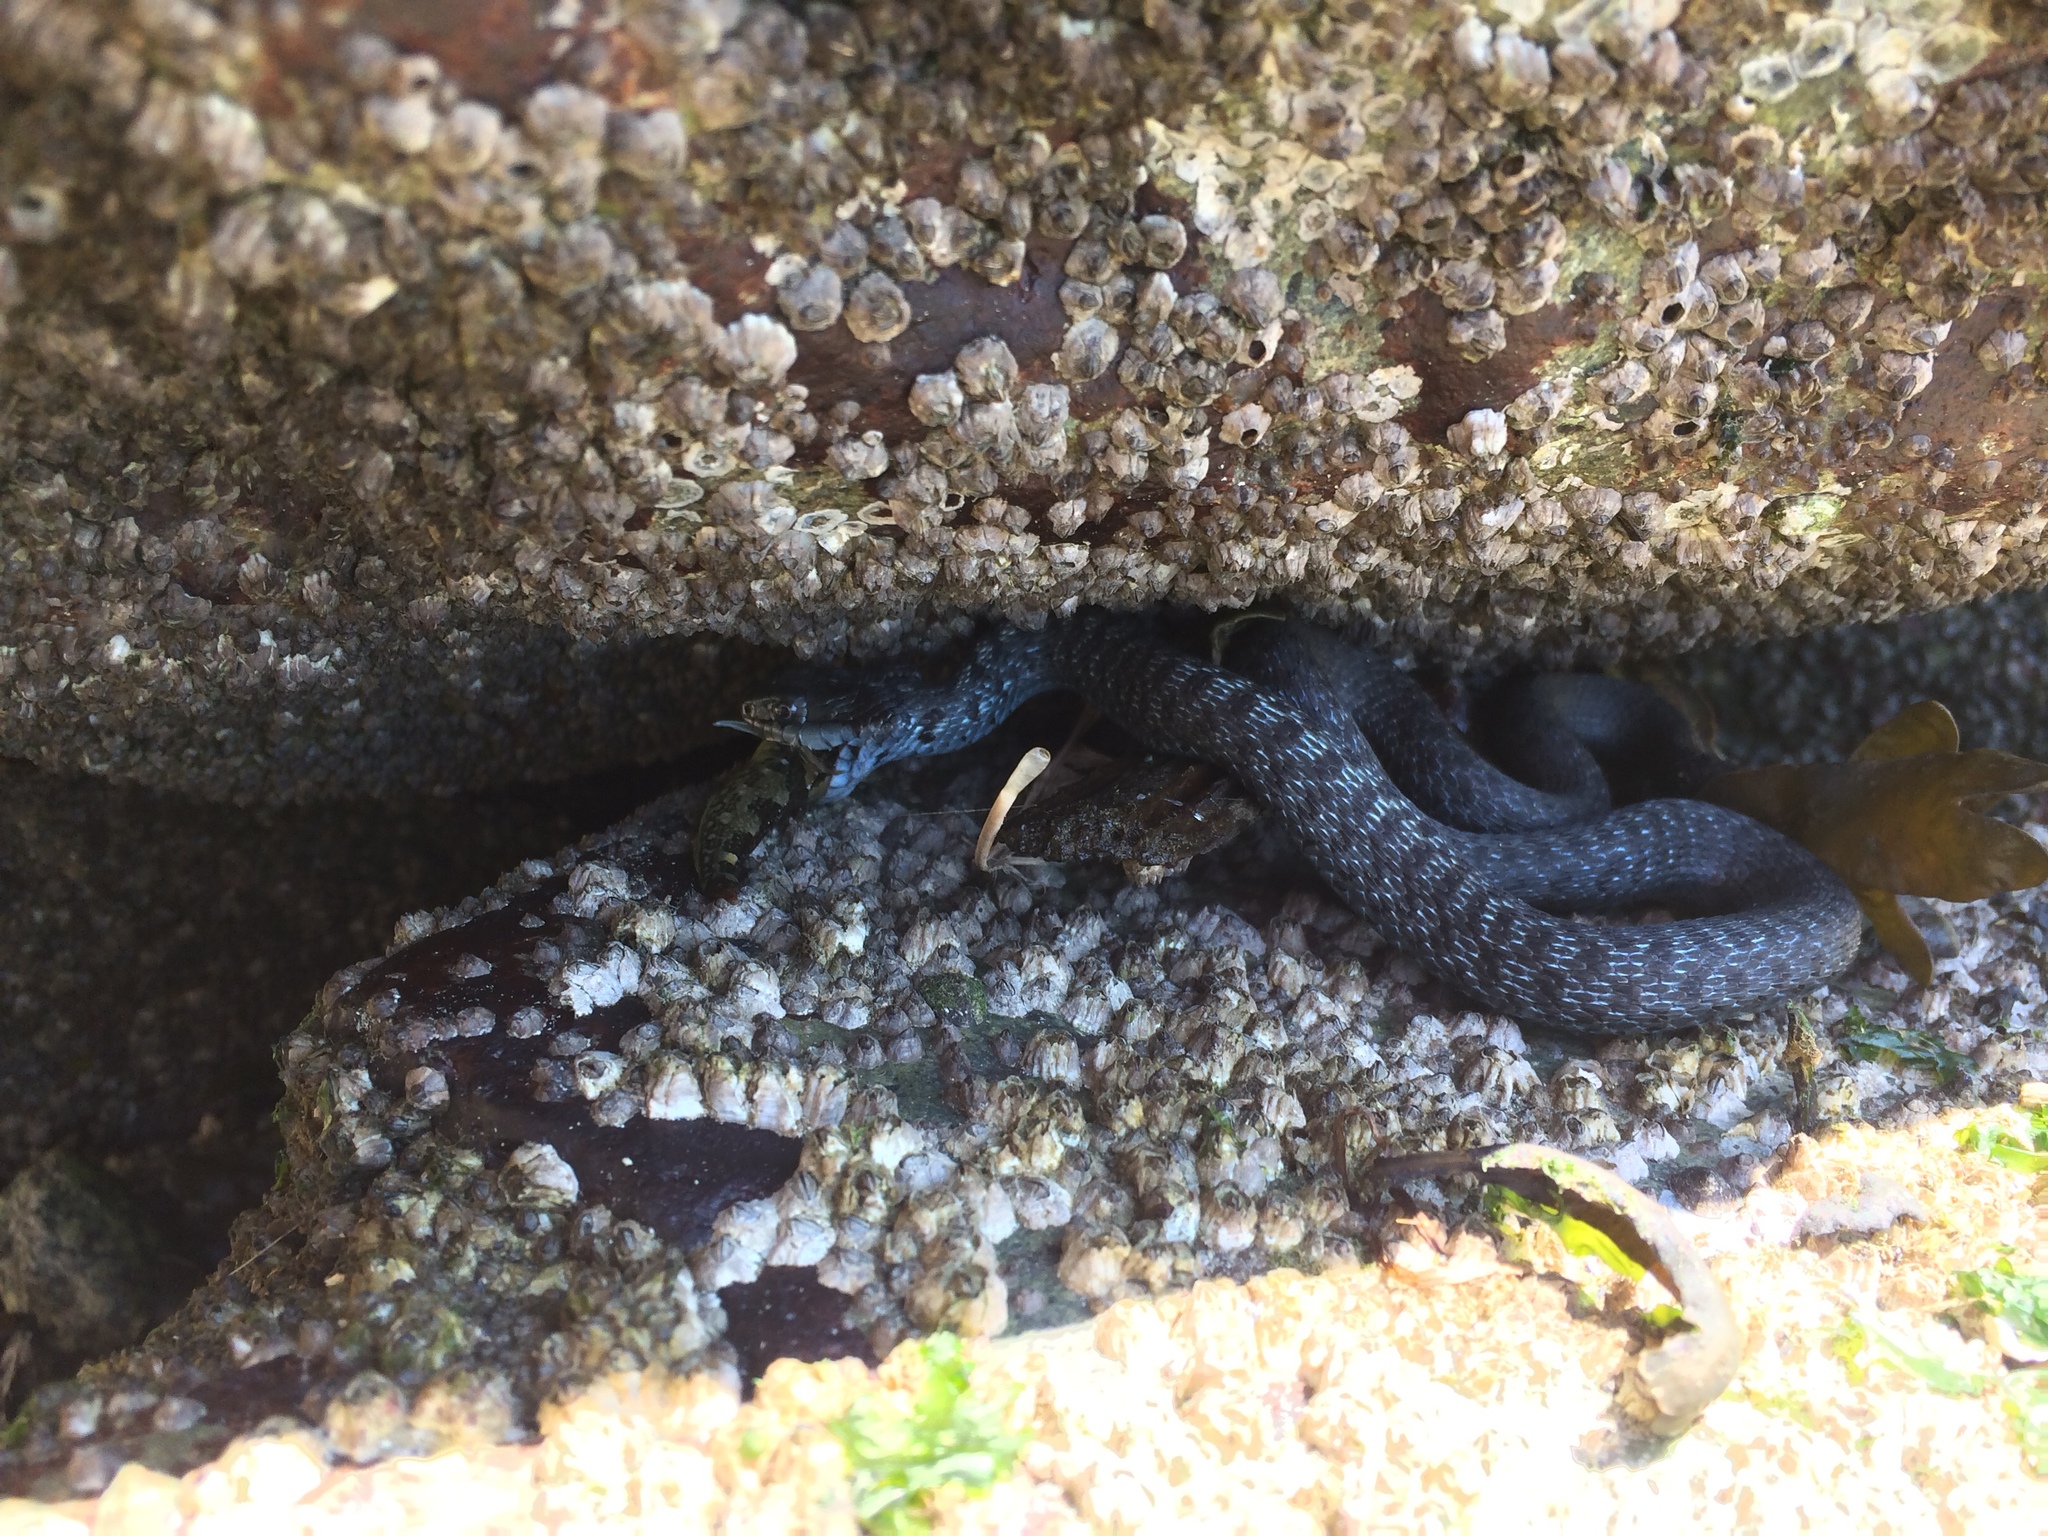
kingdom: Animalia
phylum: Chordata
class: Squamata
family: Colubridae
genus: Thamnophis
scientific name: Thamnophis elegans
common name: Western terrestrial garter snake
